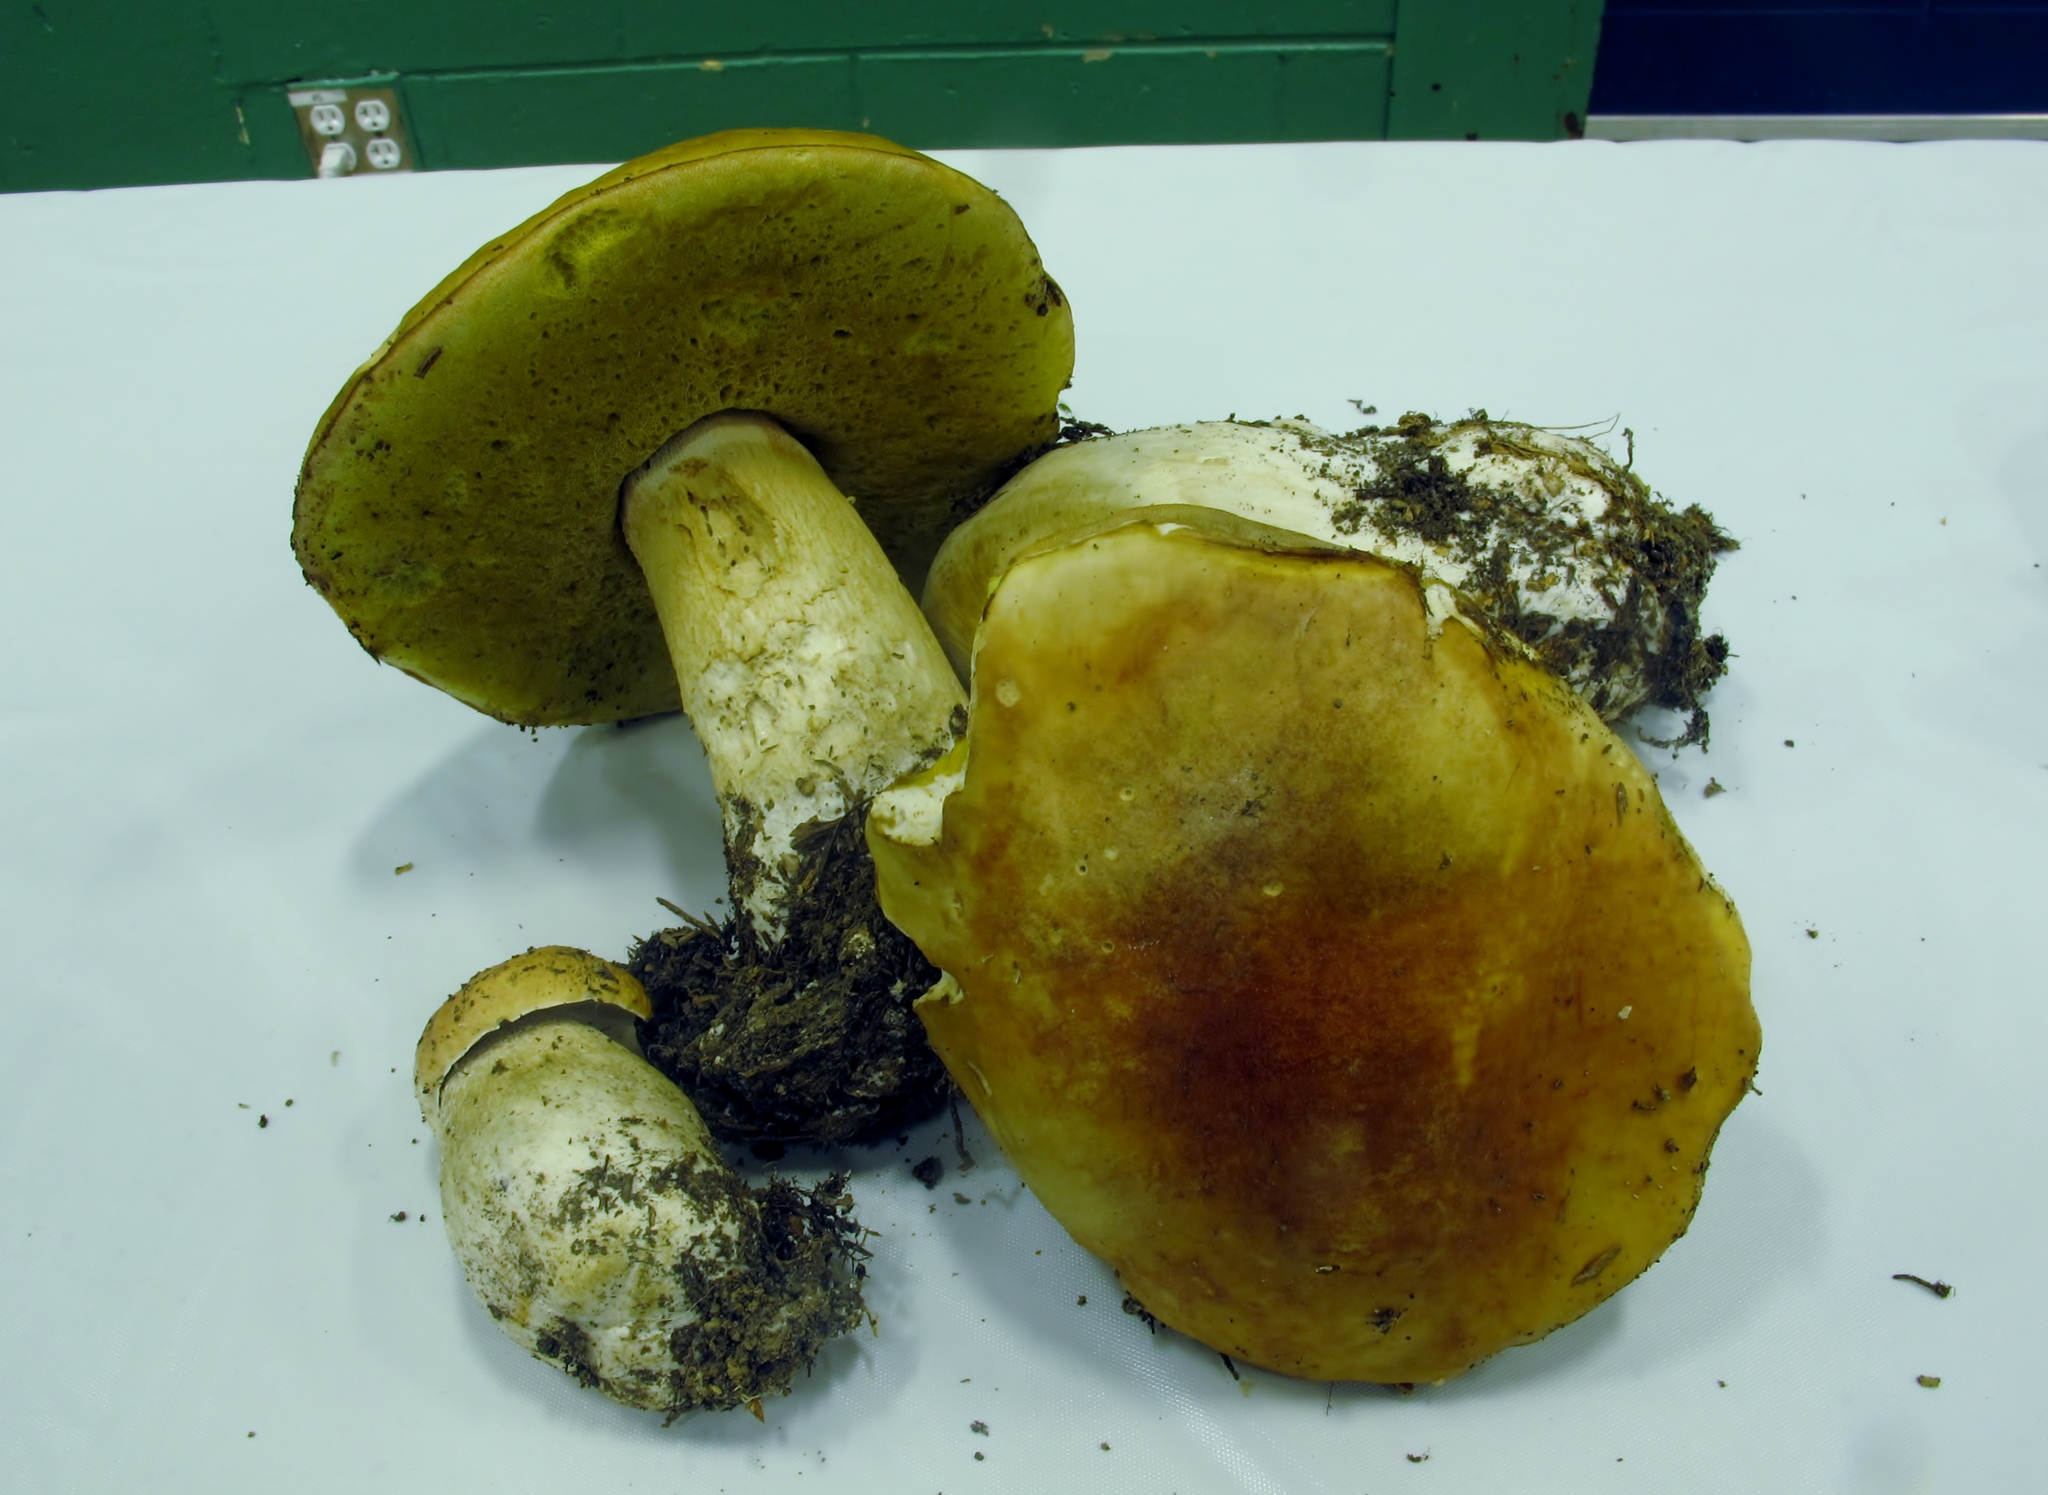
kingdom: Fungi
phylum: Basidiomycota
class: Agaricomycetes
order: Boletales
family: Boletaceae
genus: Boletus
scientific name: Boletus chippewaensis
